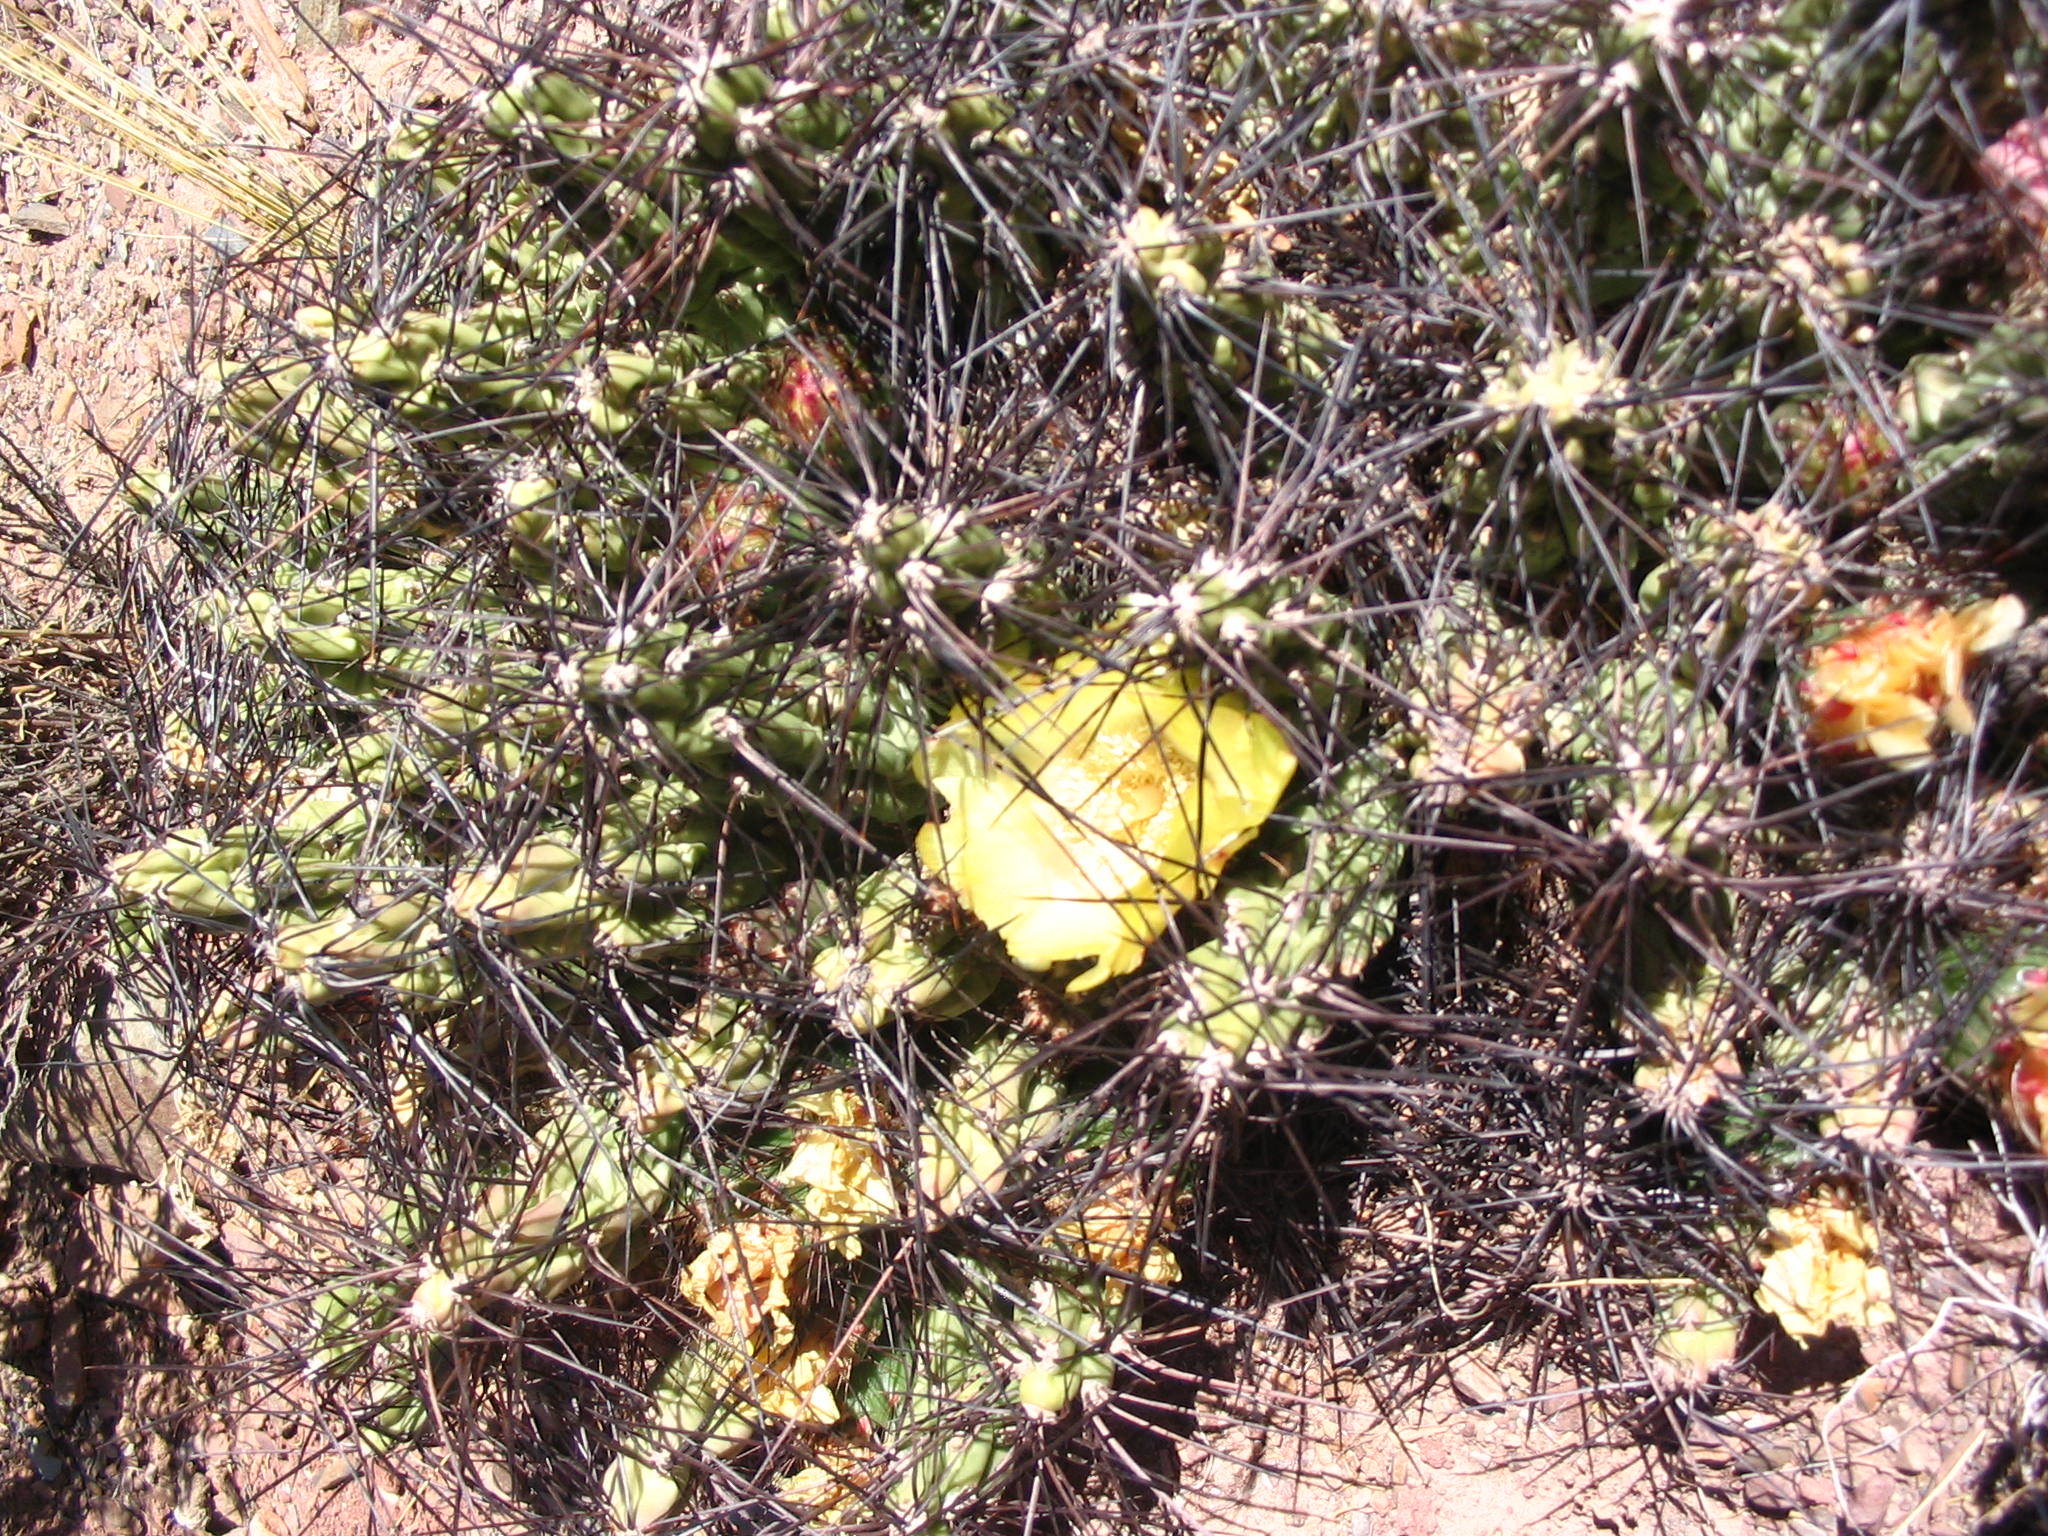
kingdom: Plantae
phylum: Tracheophyta
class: Magnoliopsida
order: Caryophyllales
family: Cactaceae
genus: Cumulopuntia
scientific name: Cumulopuntia boliviana
